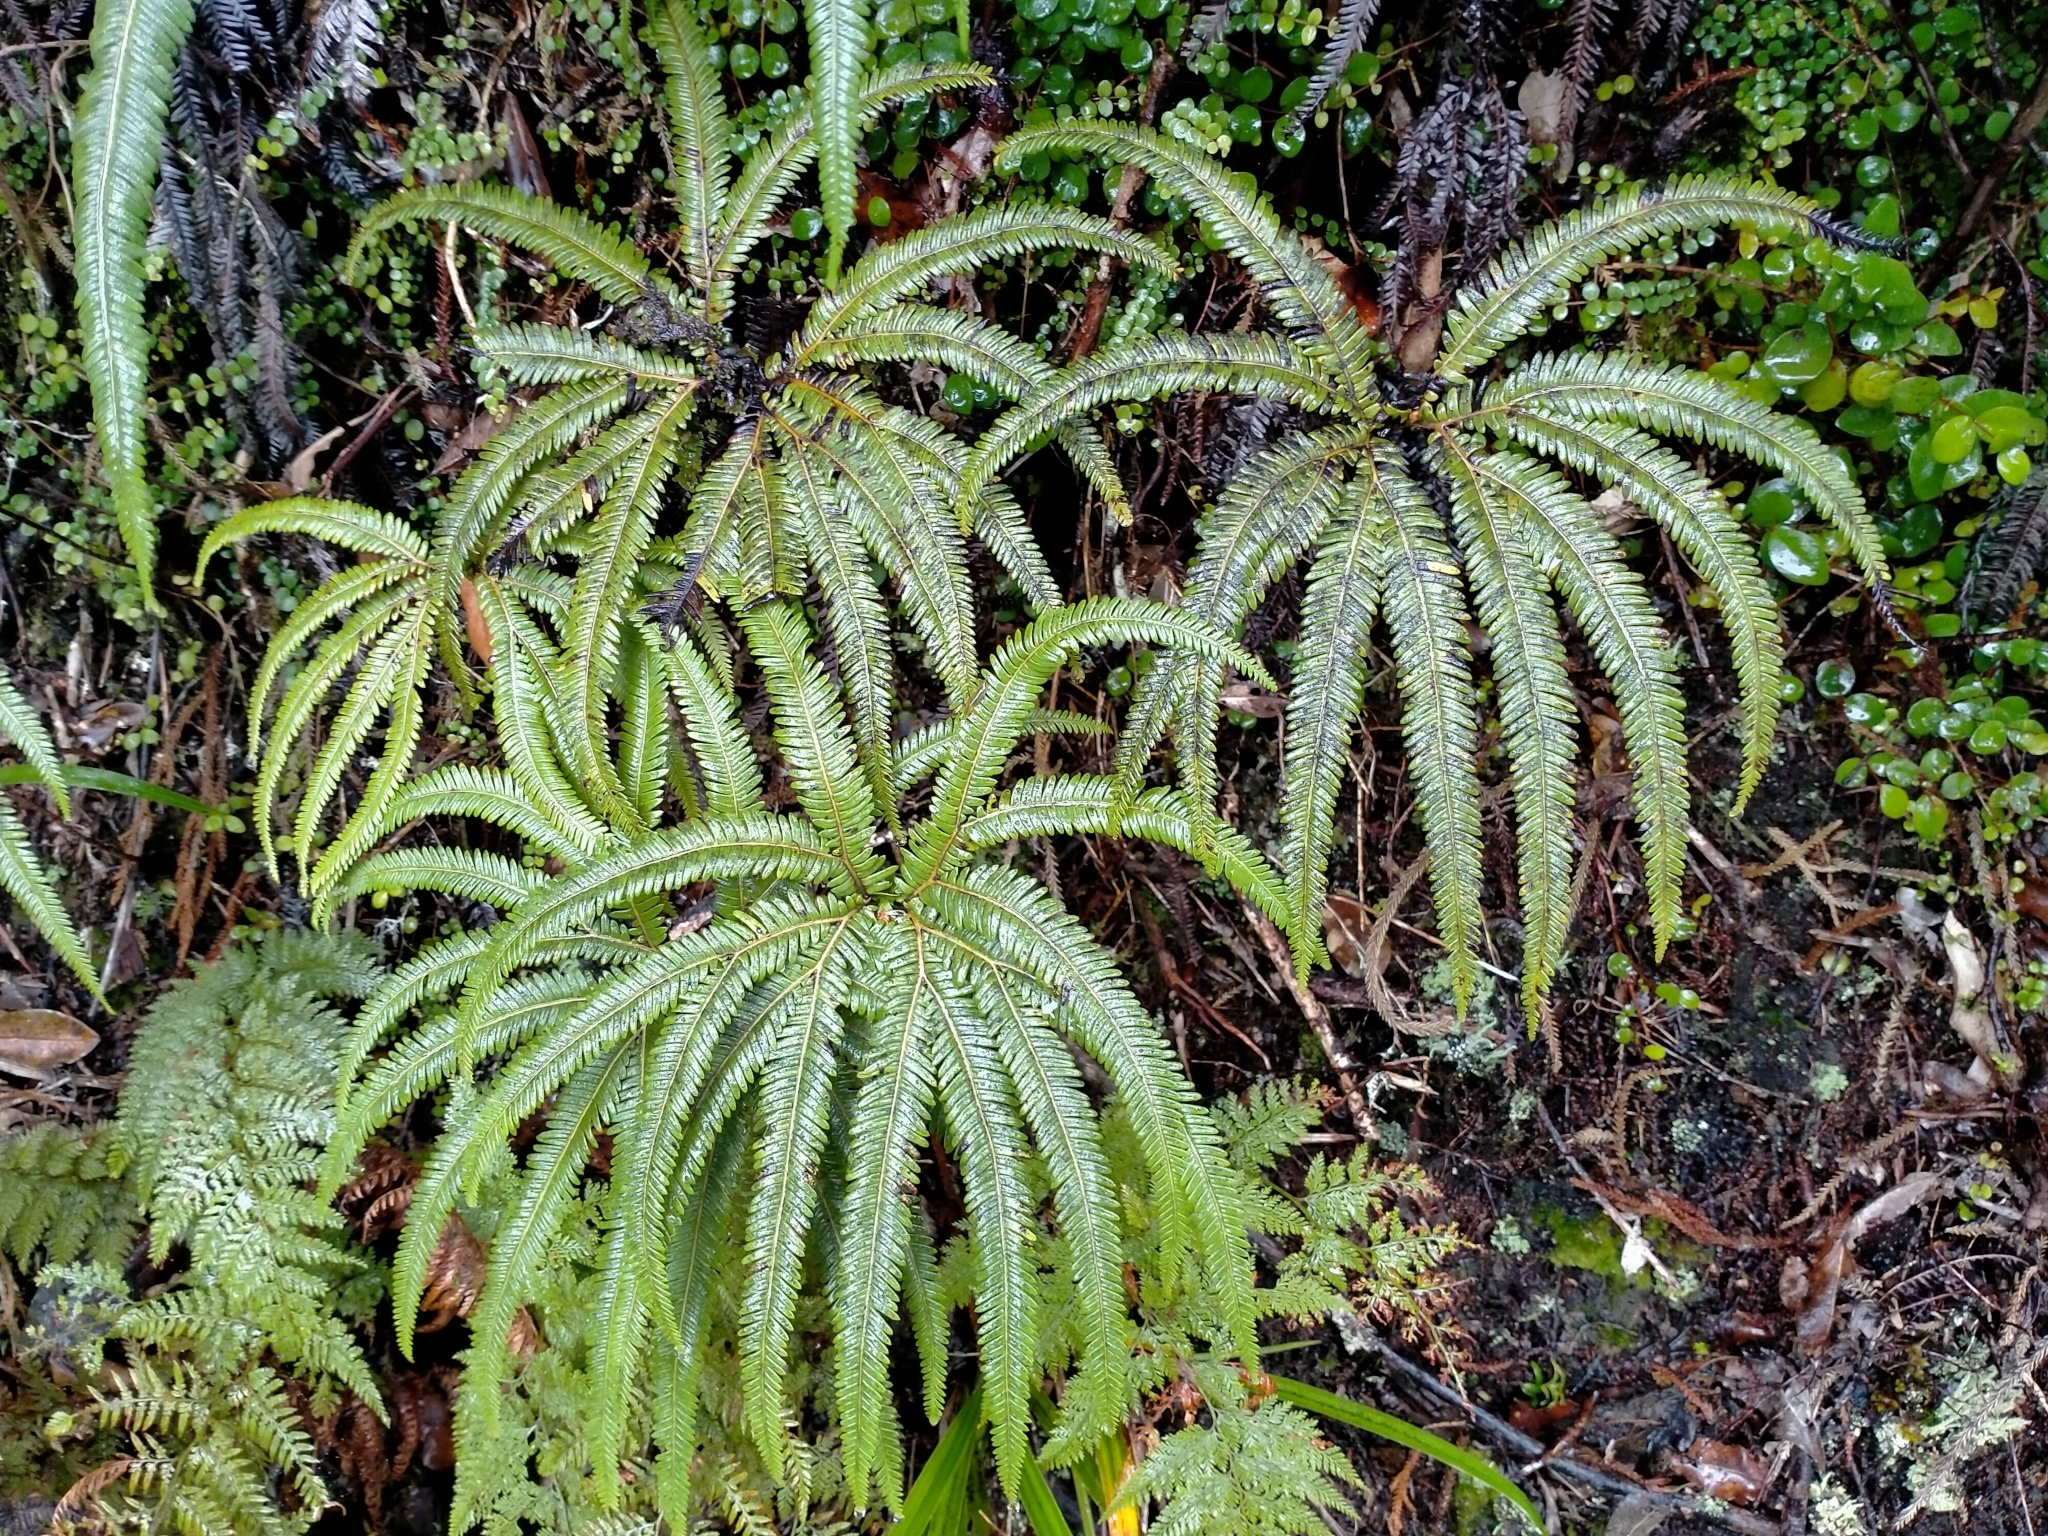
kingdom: Plantae
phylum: Tracheophyta
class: Polypodiopsida
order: Gleicheniales
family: Gleicheniaceae
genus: Sticherus
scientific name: Sticherus cunninghamii
